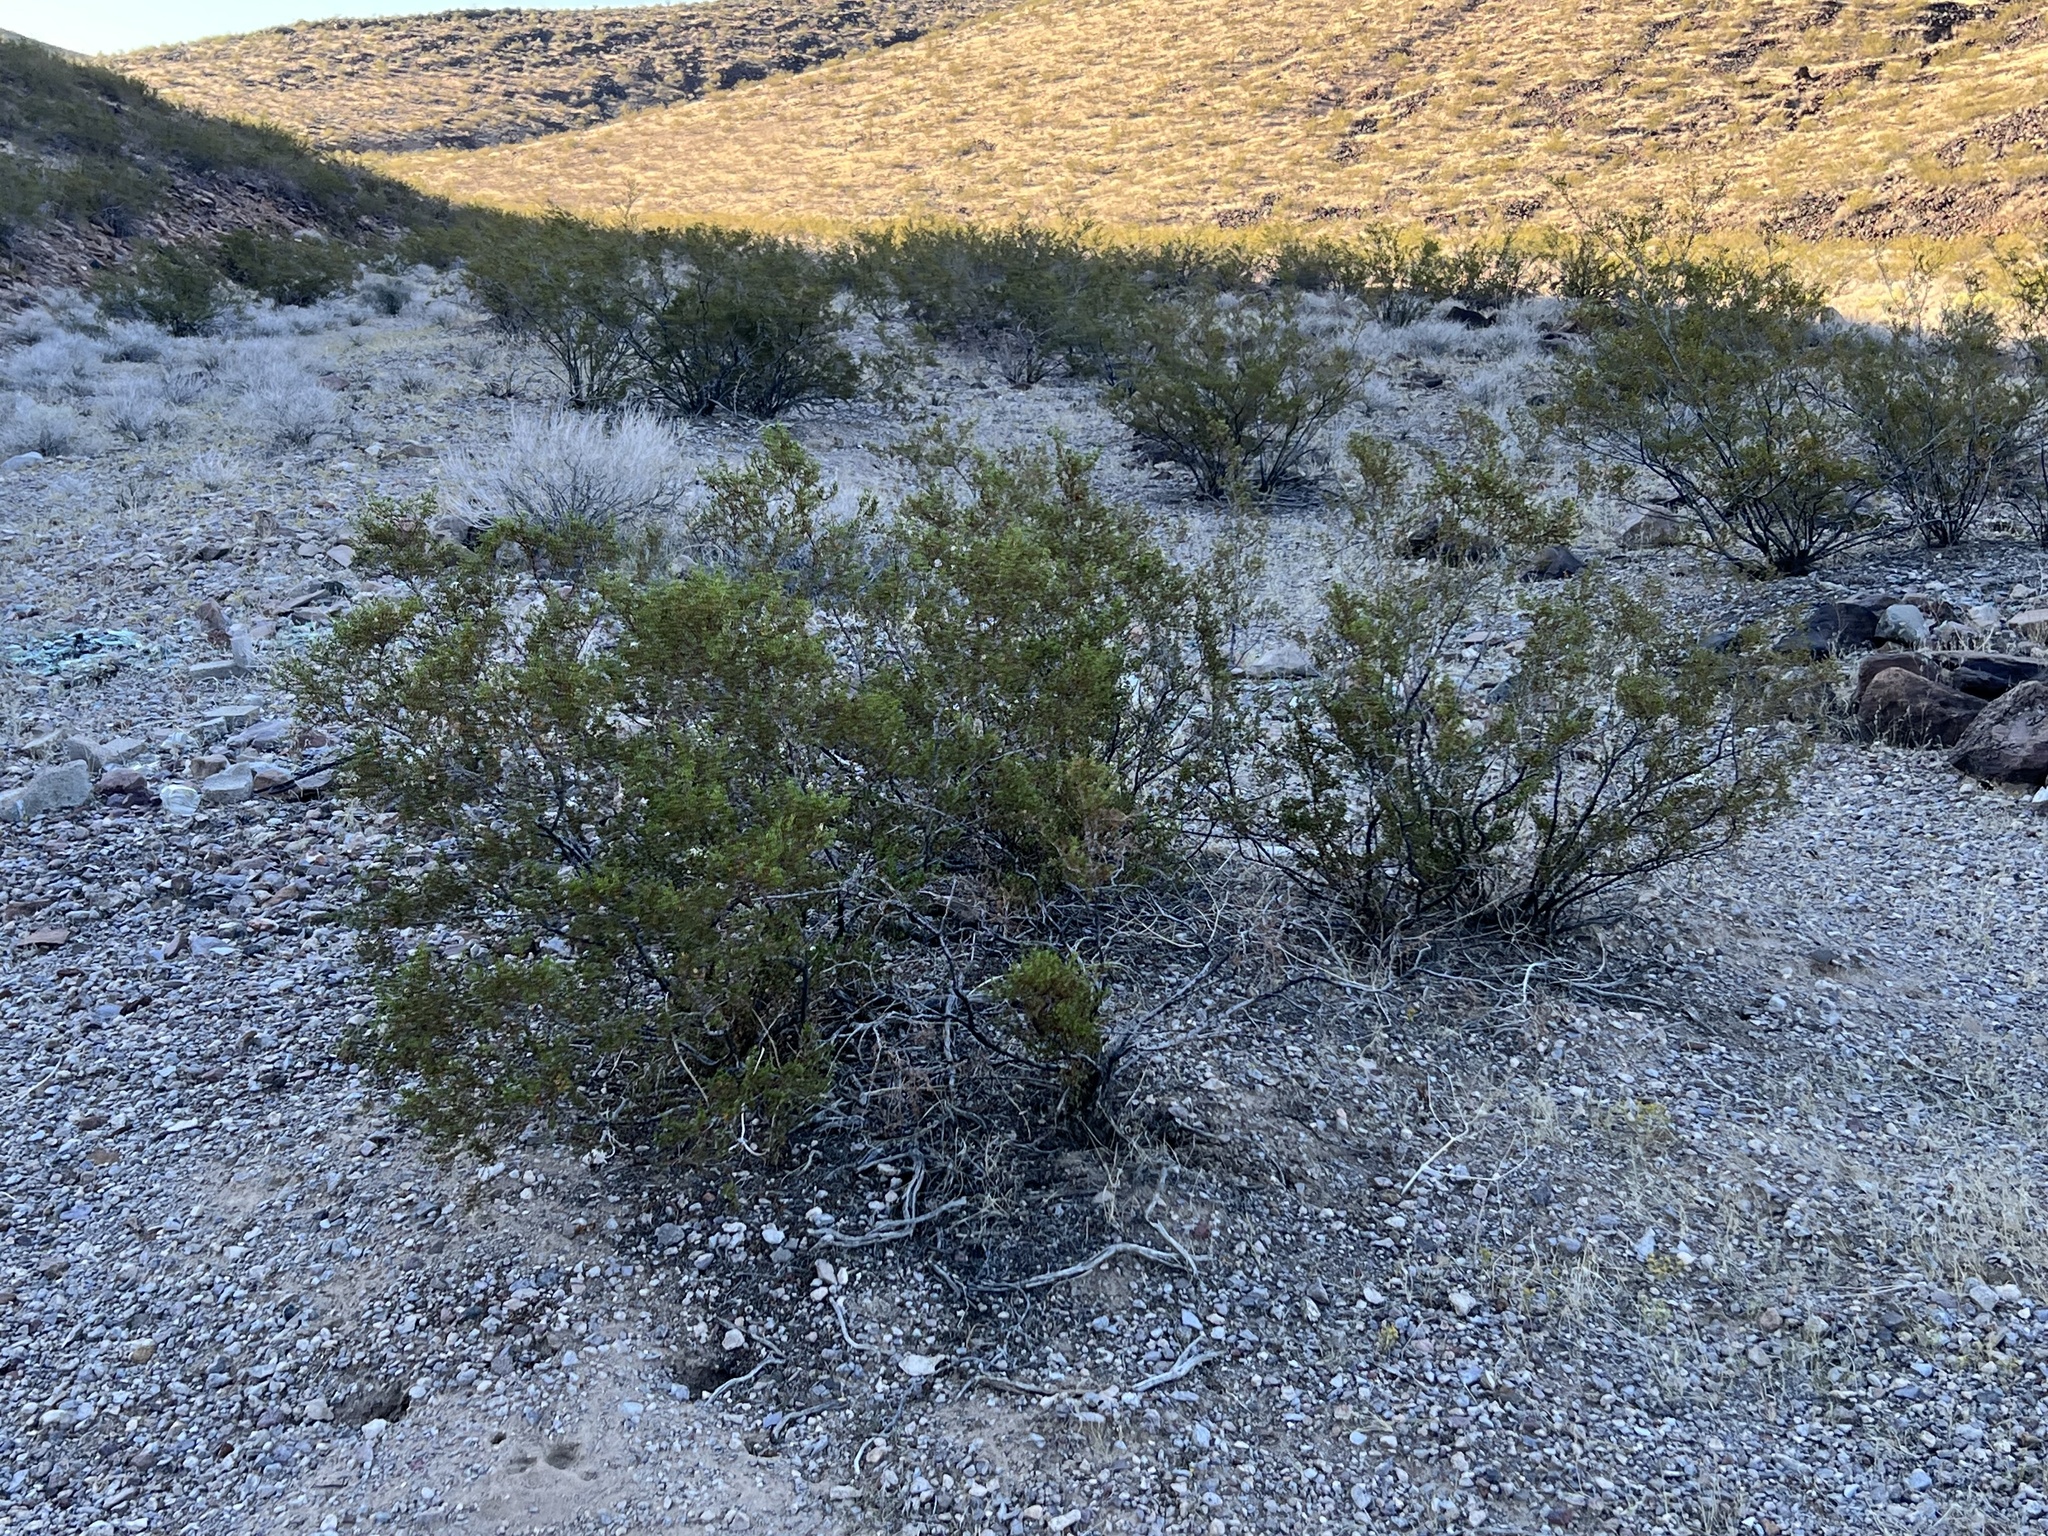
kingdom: Plantae
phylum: Tracheophyta
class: Magnoliopsida
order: Zygophyllales
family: Zygophyllaceae
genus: Larrea
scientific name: Larrea tridentata
